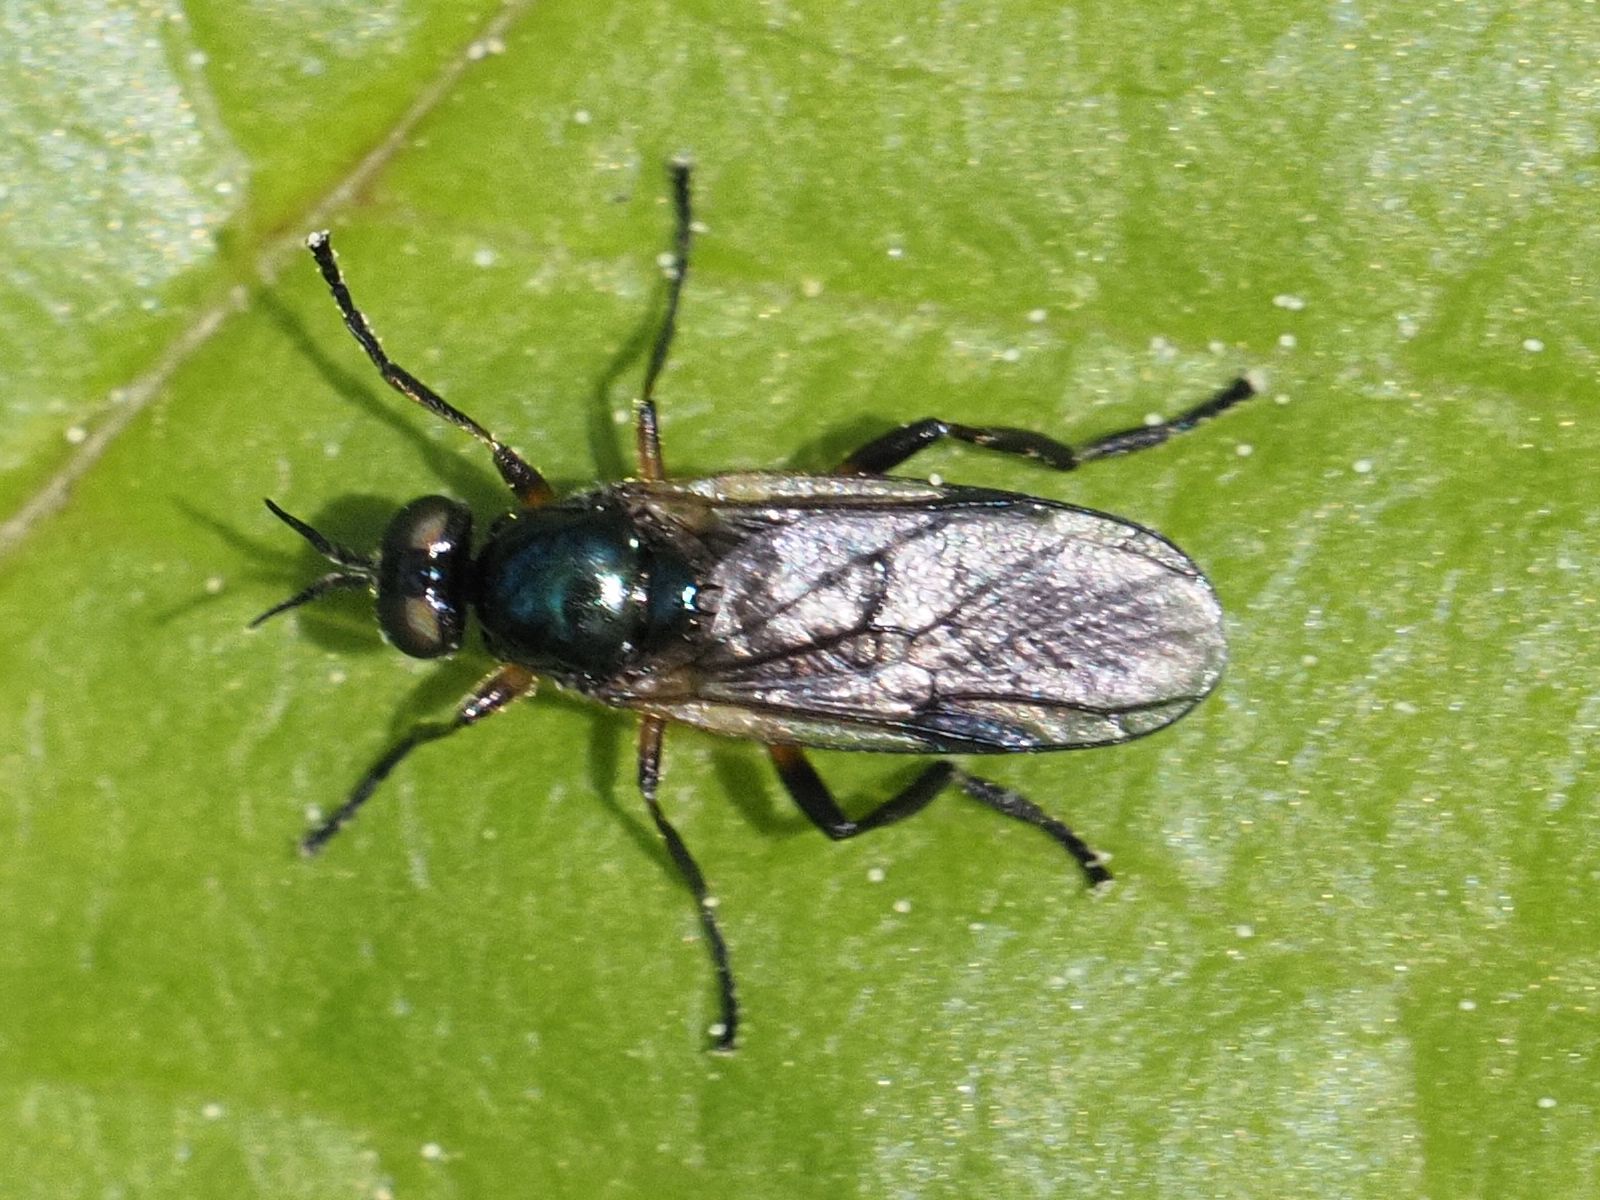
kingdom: Animalia
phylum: Arthropoda
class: Insecta
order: Diptera
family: Stratiomyidae
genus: Actina
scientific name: Actina chalybea
